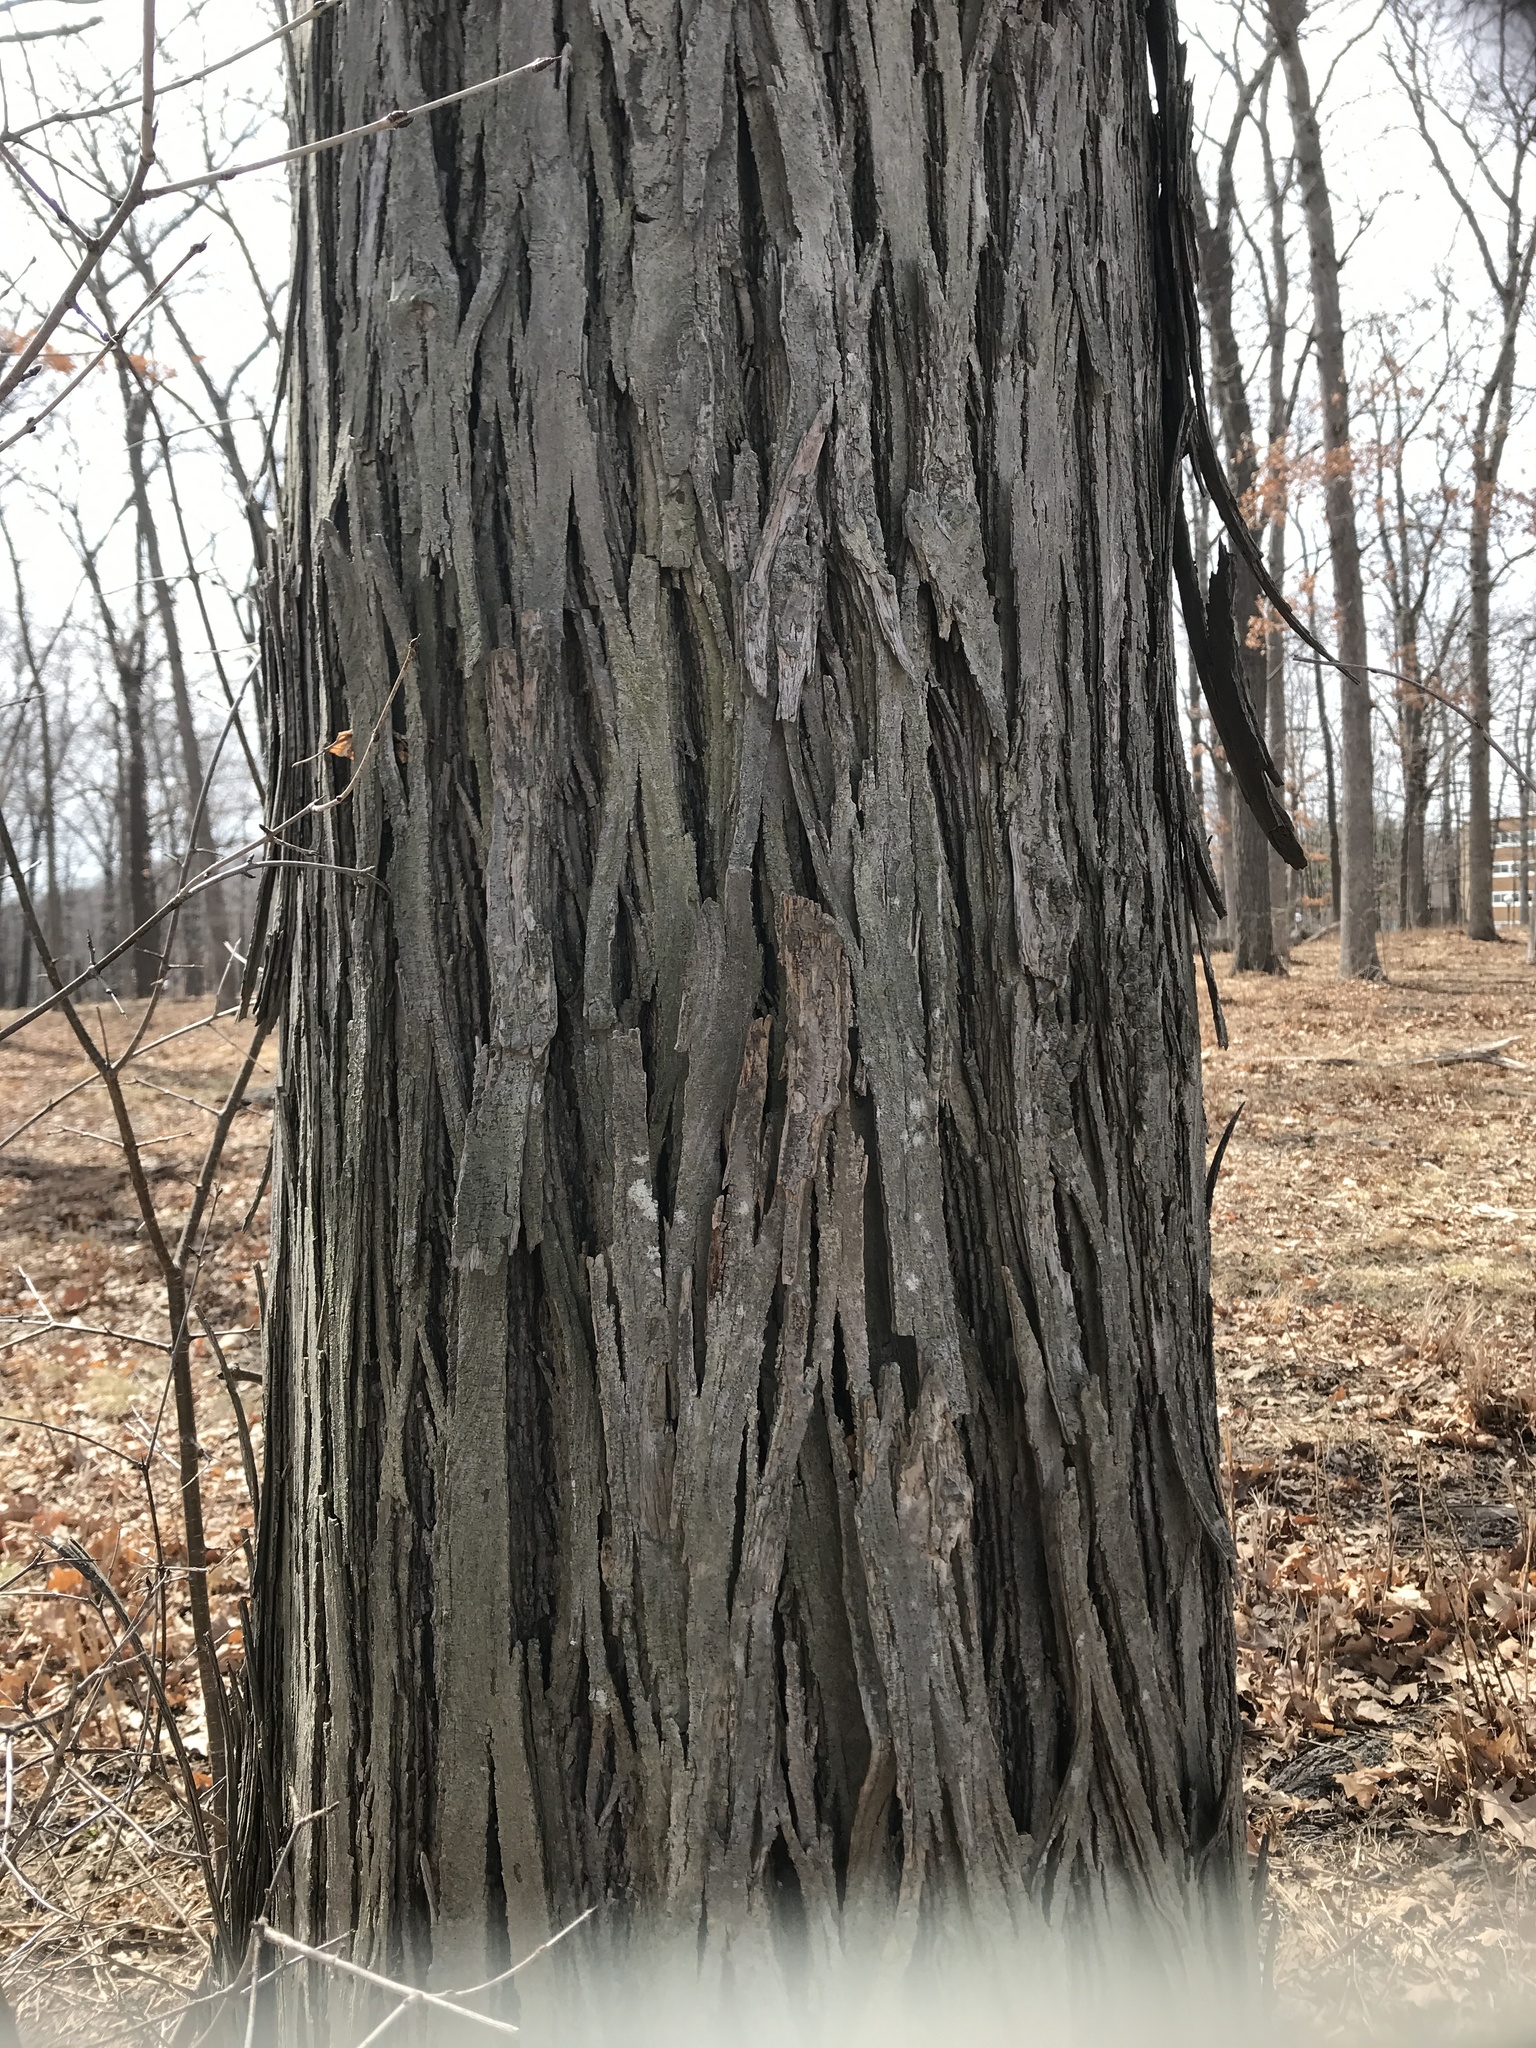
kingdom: Plantae
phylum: Tracheophyta
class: Magnoliopsida
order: Fagales
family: Juglandaceae
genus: Carya
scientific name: Carya ovata
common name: Shagbark hickory
